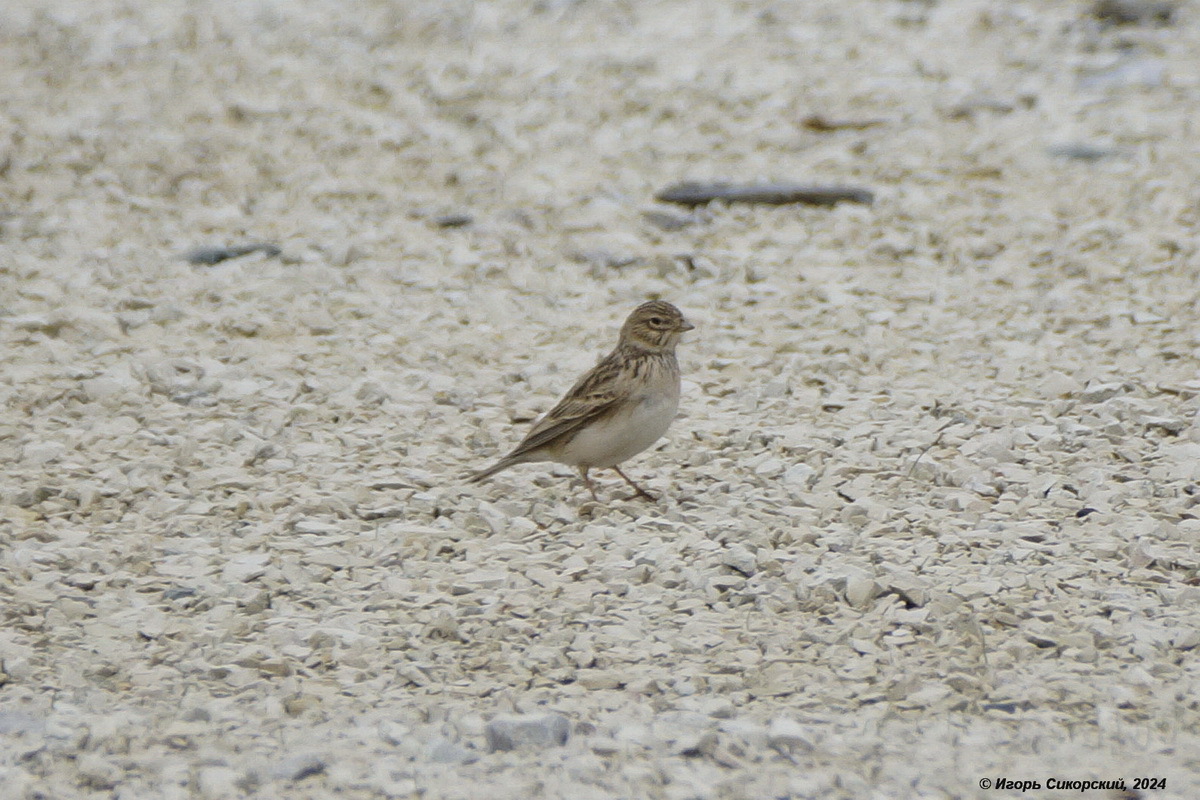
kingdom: Animalia
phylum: Chordata
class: Aves
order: Passeriformes
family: Alaudidae
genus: Calandrella
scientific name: Calandrella rufescens
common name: Lesser short-toed lark
